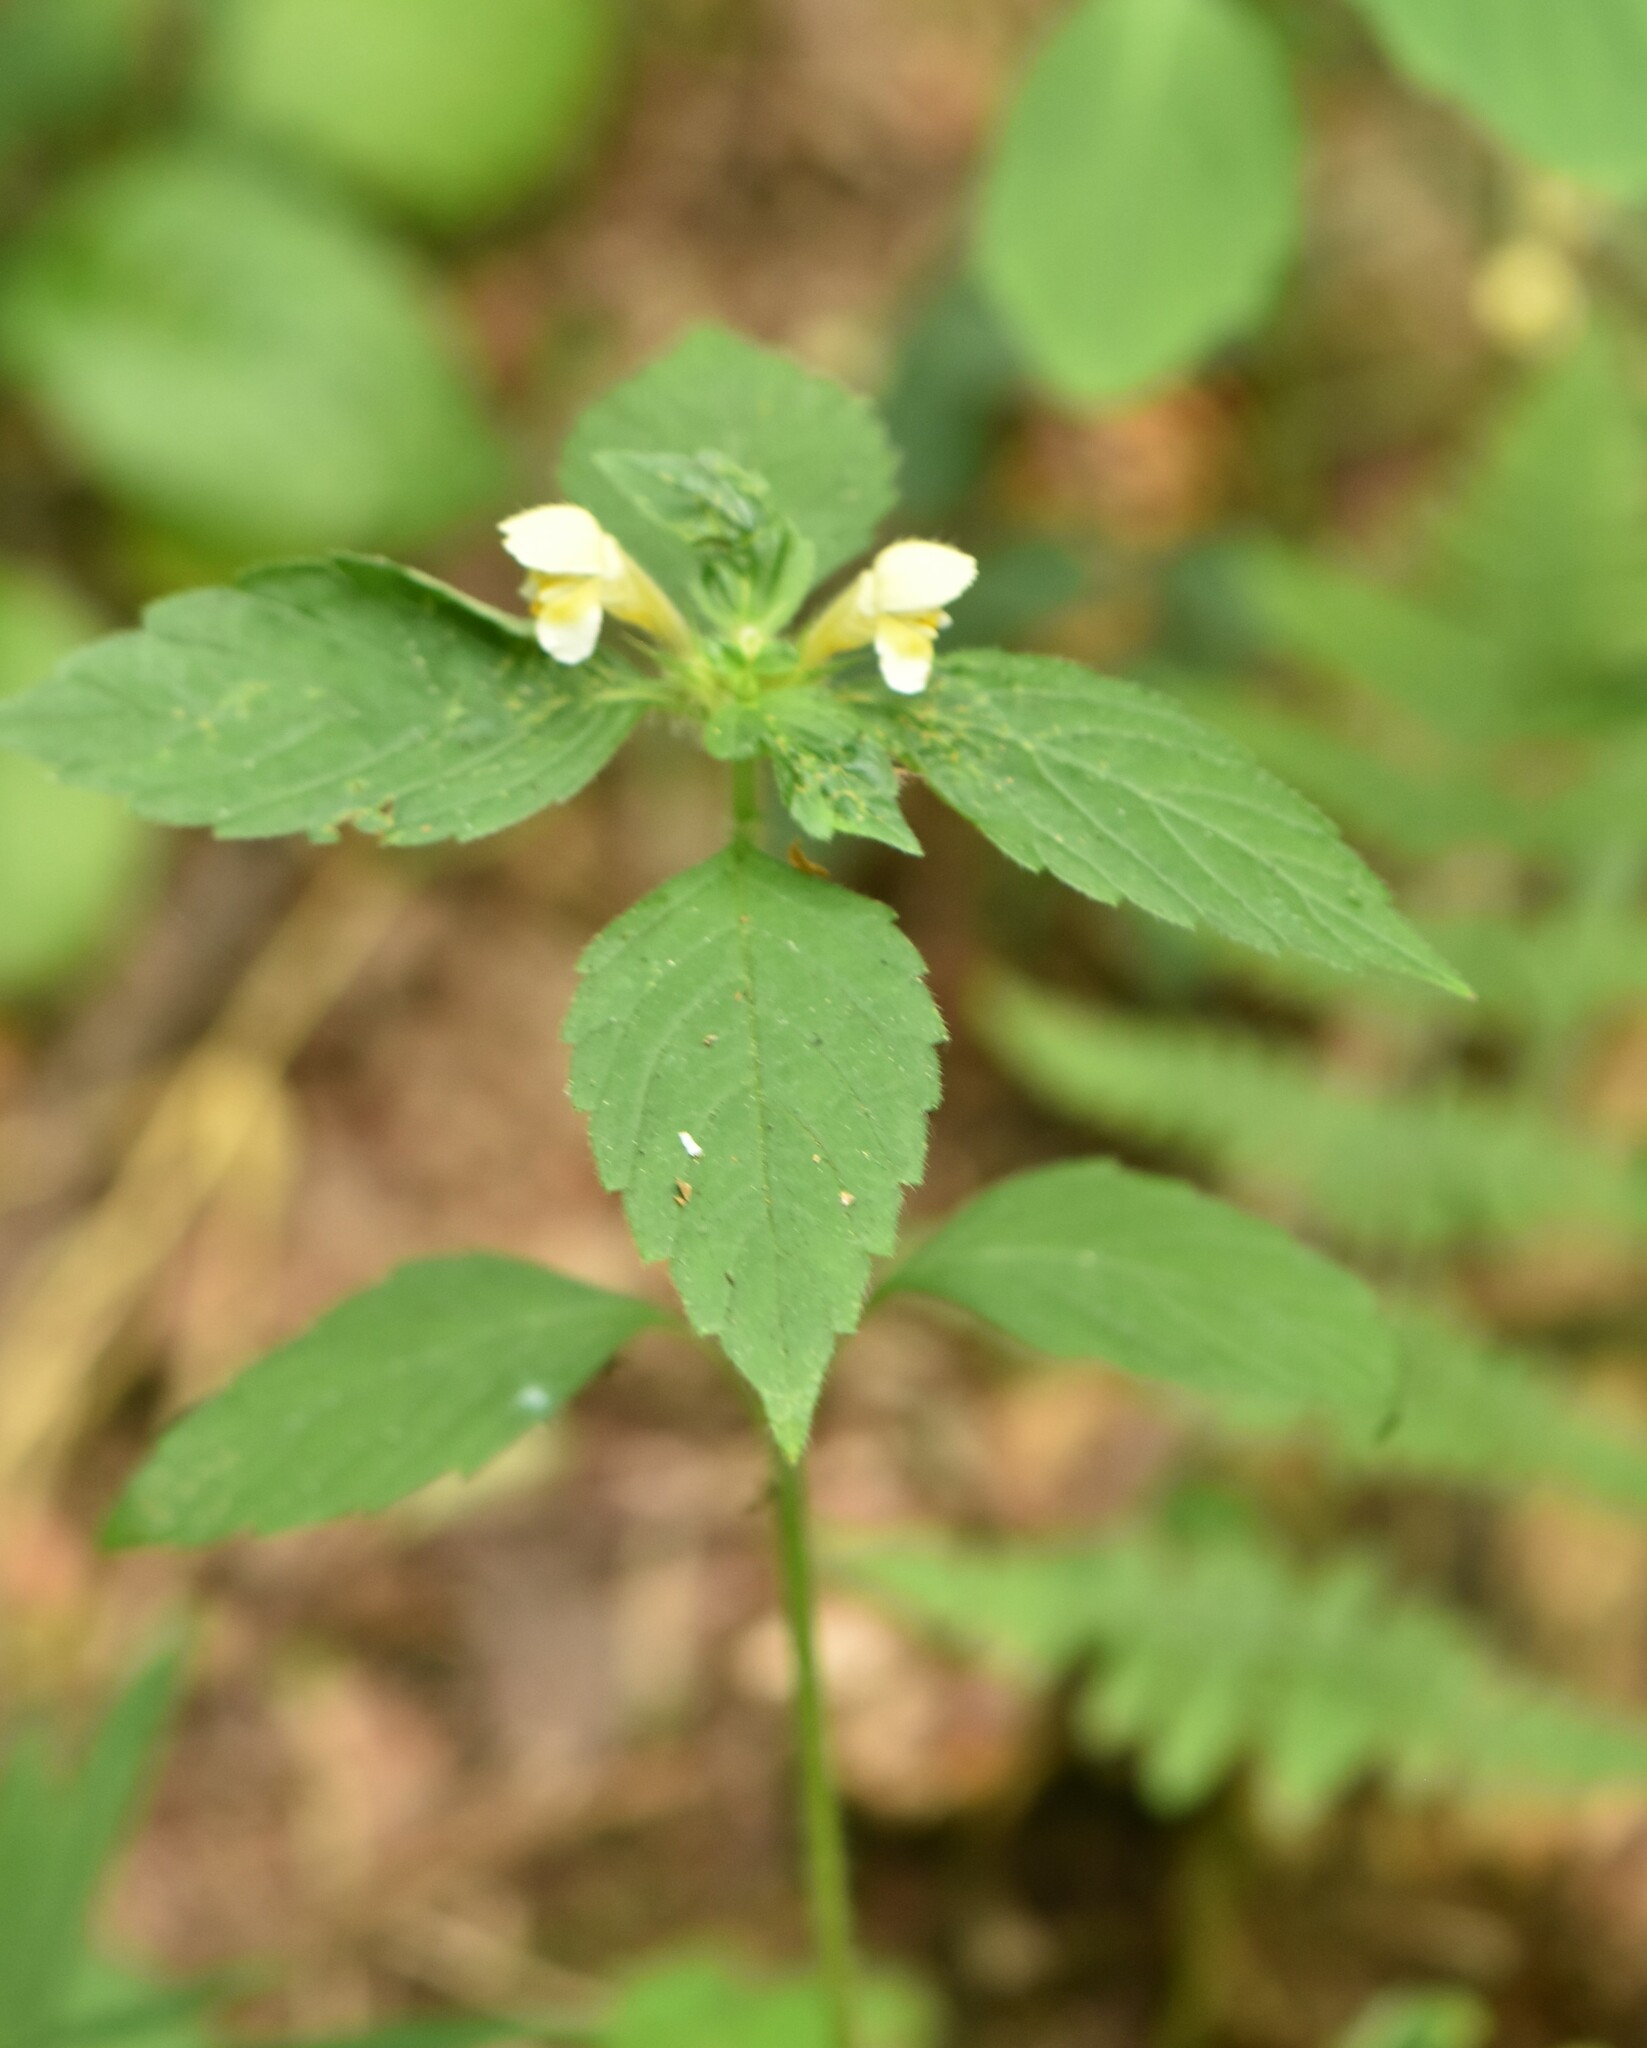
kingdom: Plantae
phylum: Tracheophyta
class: Magnoliopsida
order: Lamiales
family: Lamiaceae
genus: Galeopsis
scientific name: Galeopsis speciosa
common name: Large-flowered hemp-nettle
